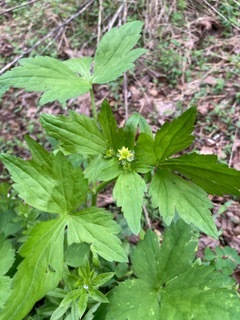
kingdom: Plantae
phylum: Tracheophyta
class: Magnoliopsida
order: Ranunculales
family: Ranunculaceae
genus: Ranunculus
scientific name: Ranunculus recurvatus
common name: Blisterwort
